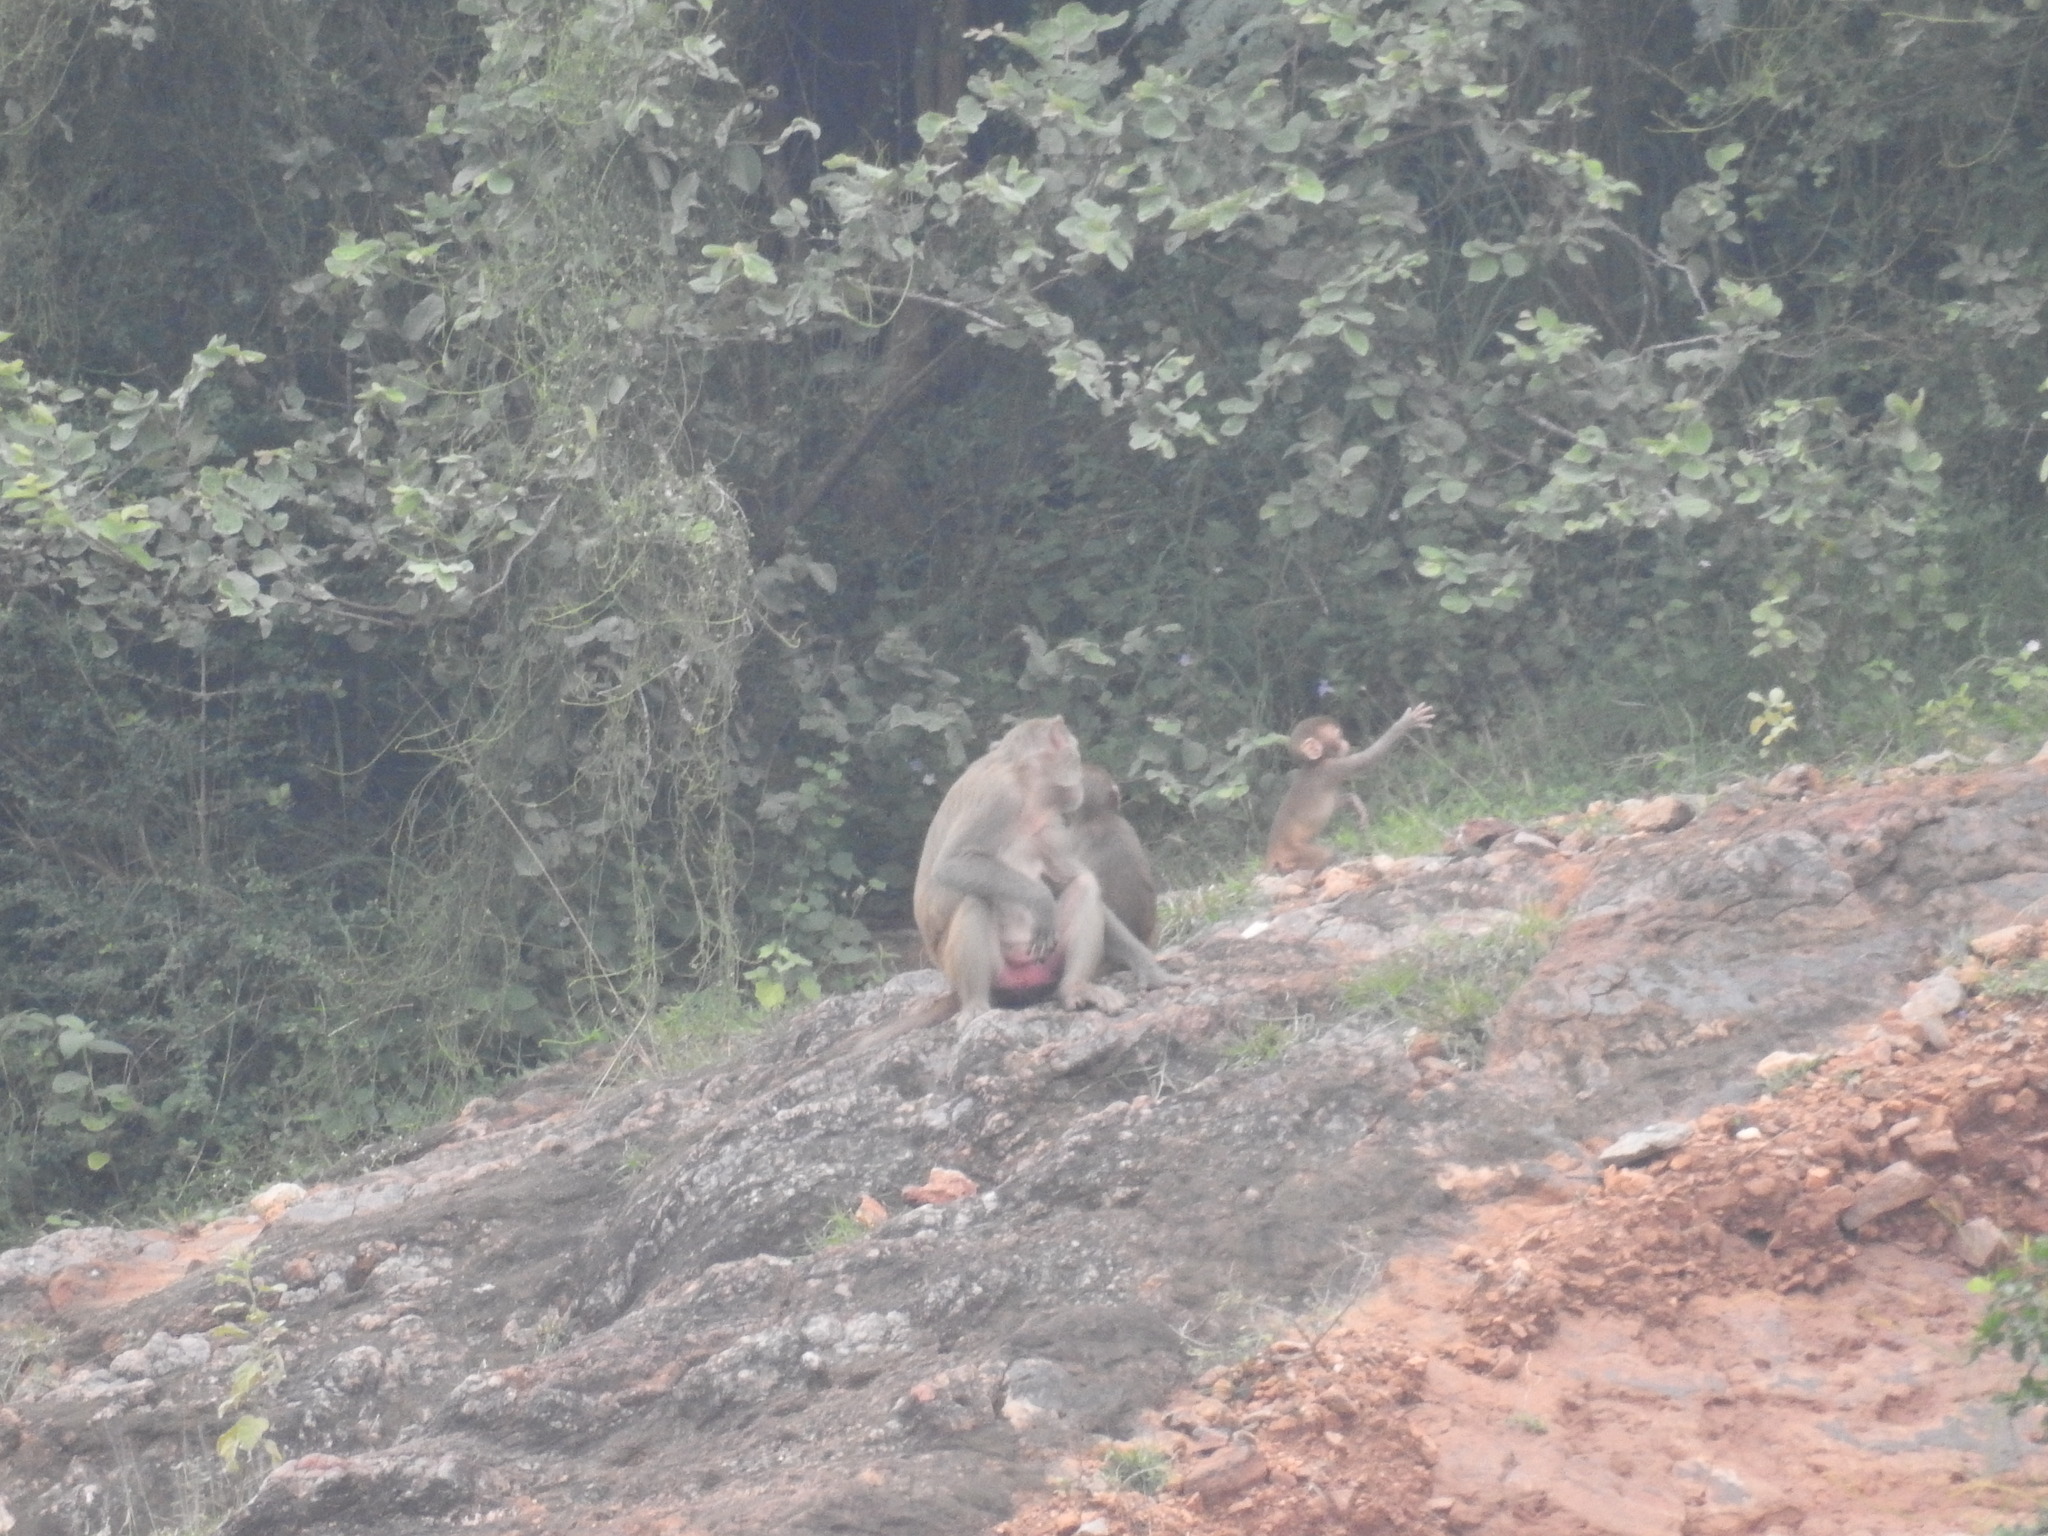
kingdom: Animalia
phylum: Chordata
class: Mammalia
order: Primates
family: Cercopithecidae
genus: Macaca
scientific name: Macaca mulatta
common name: Rhesus monkey
